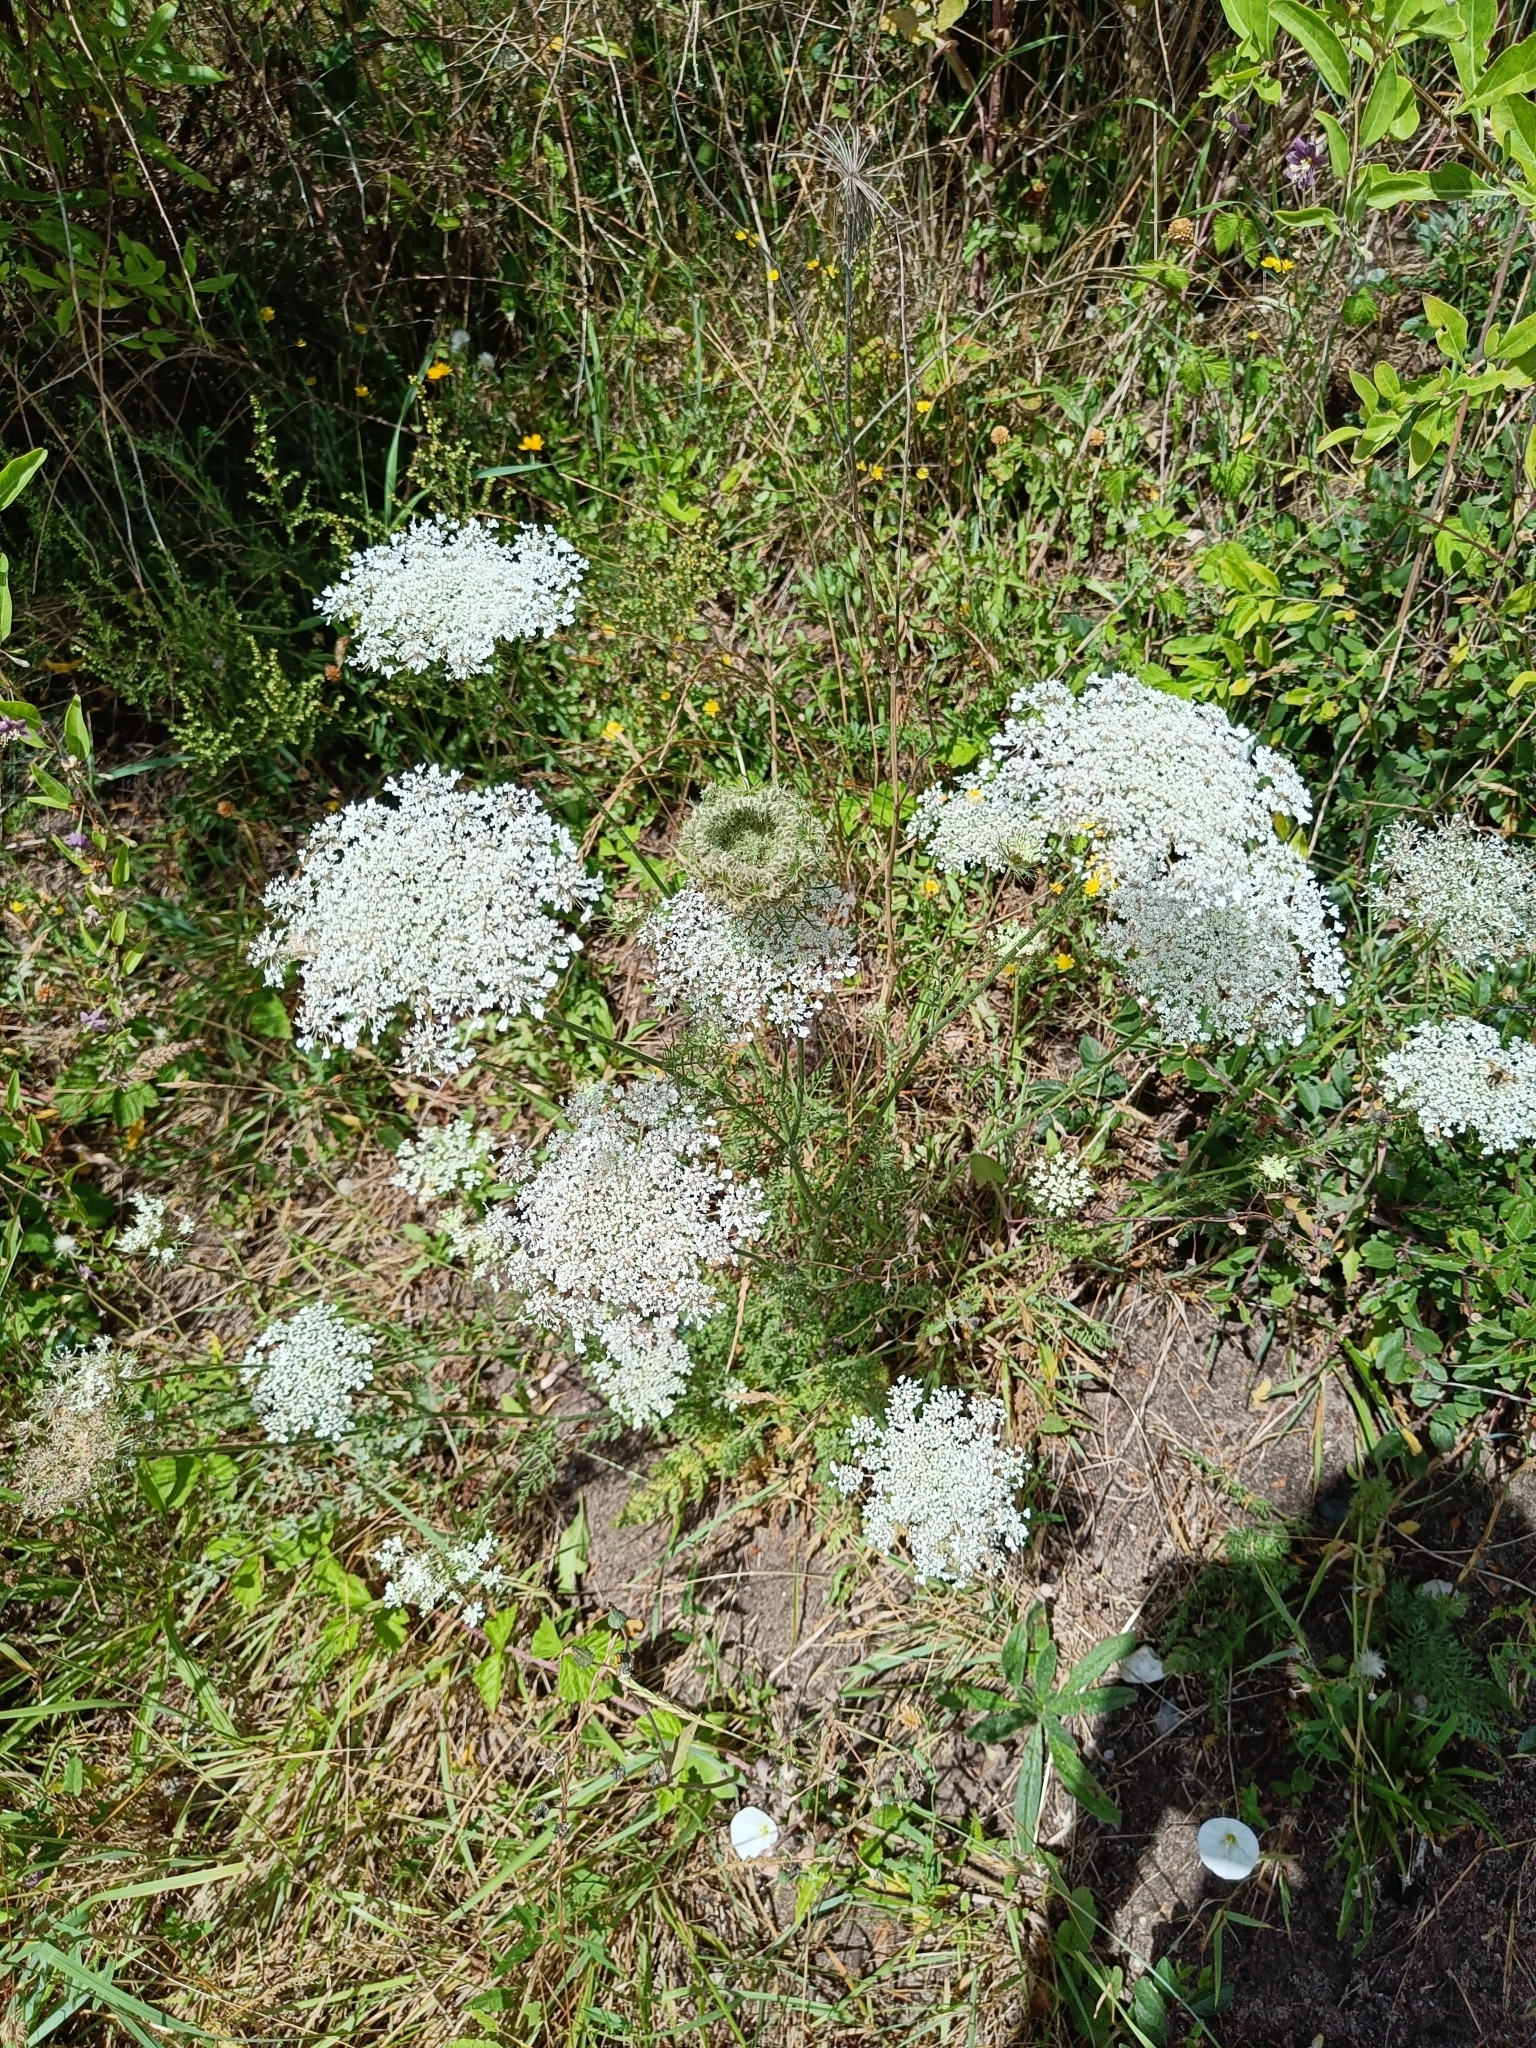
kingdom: Plantae
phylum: Tracheophyta
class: Magnoliopsida
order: Apiales
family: Apiaceae
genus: Daucus
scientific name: Daucus carota
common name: Wild carrot
